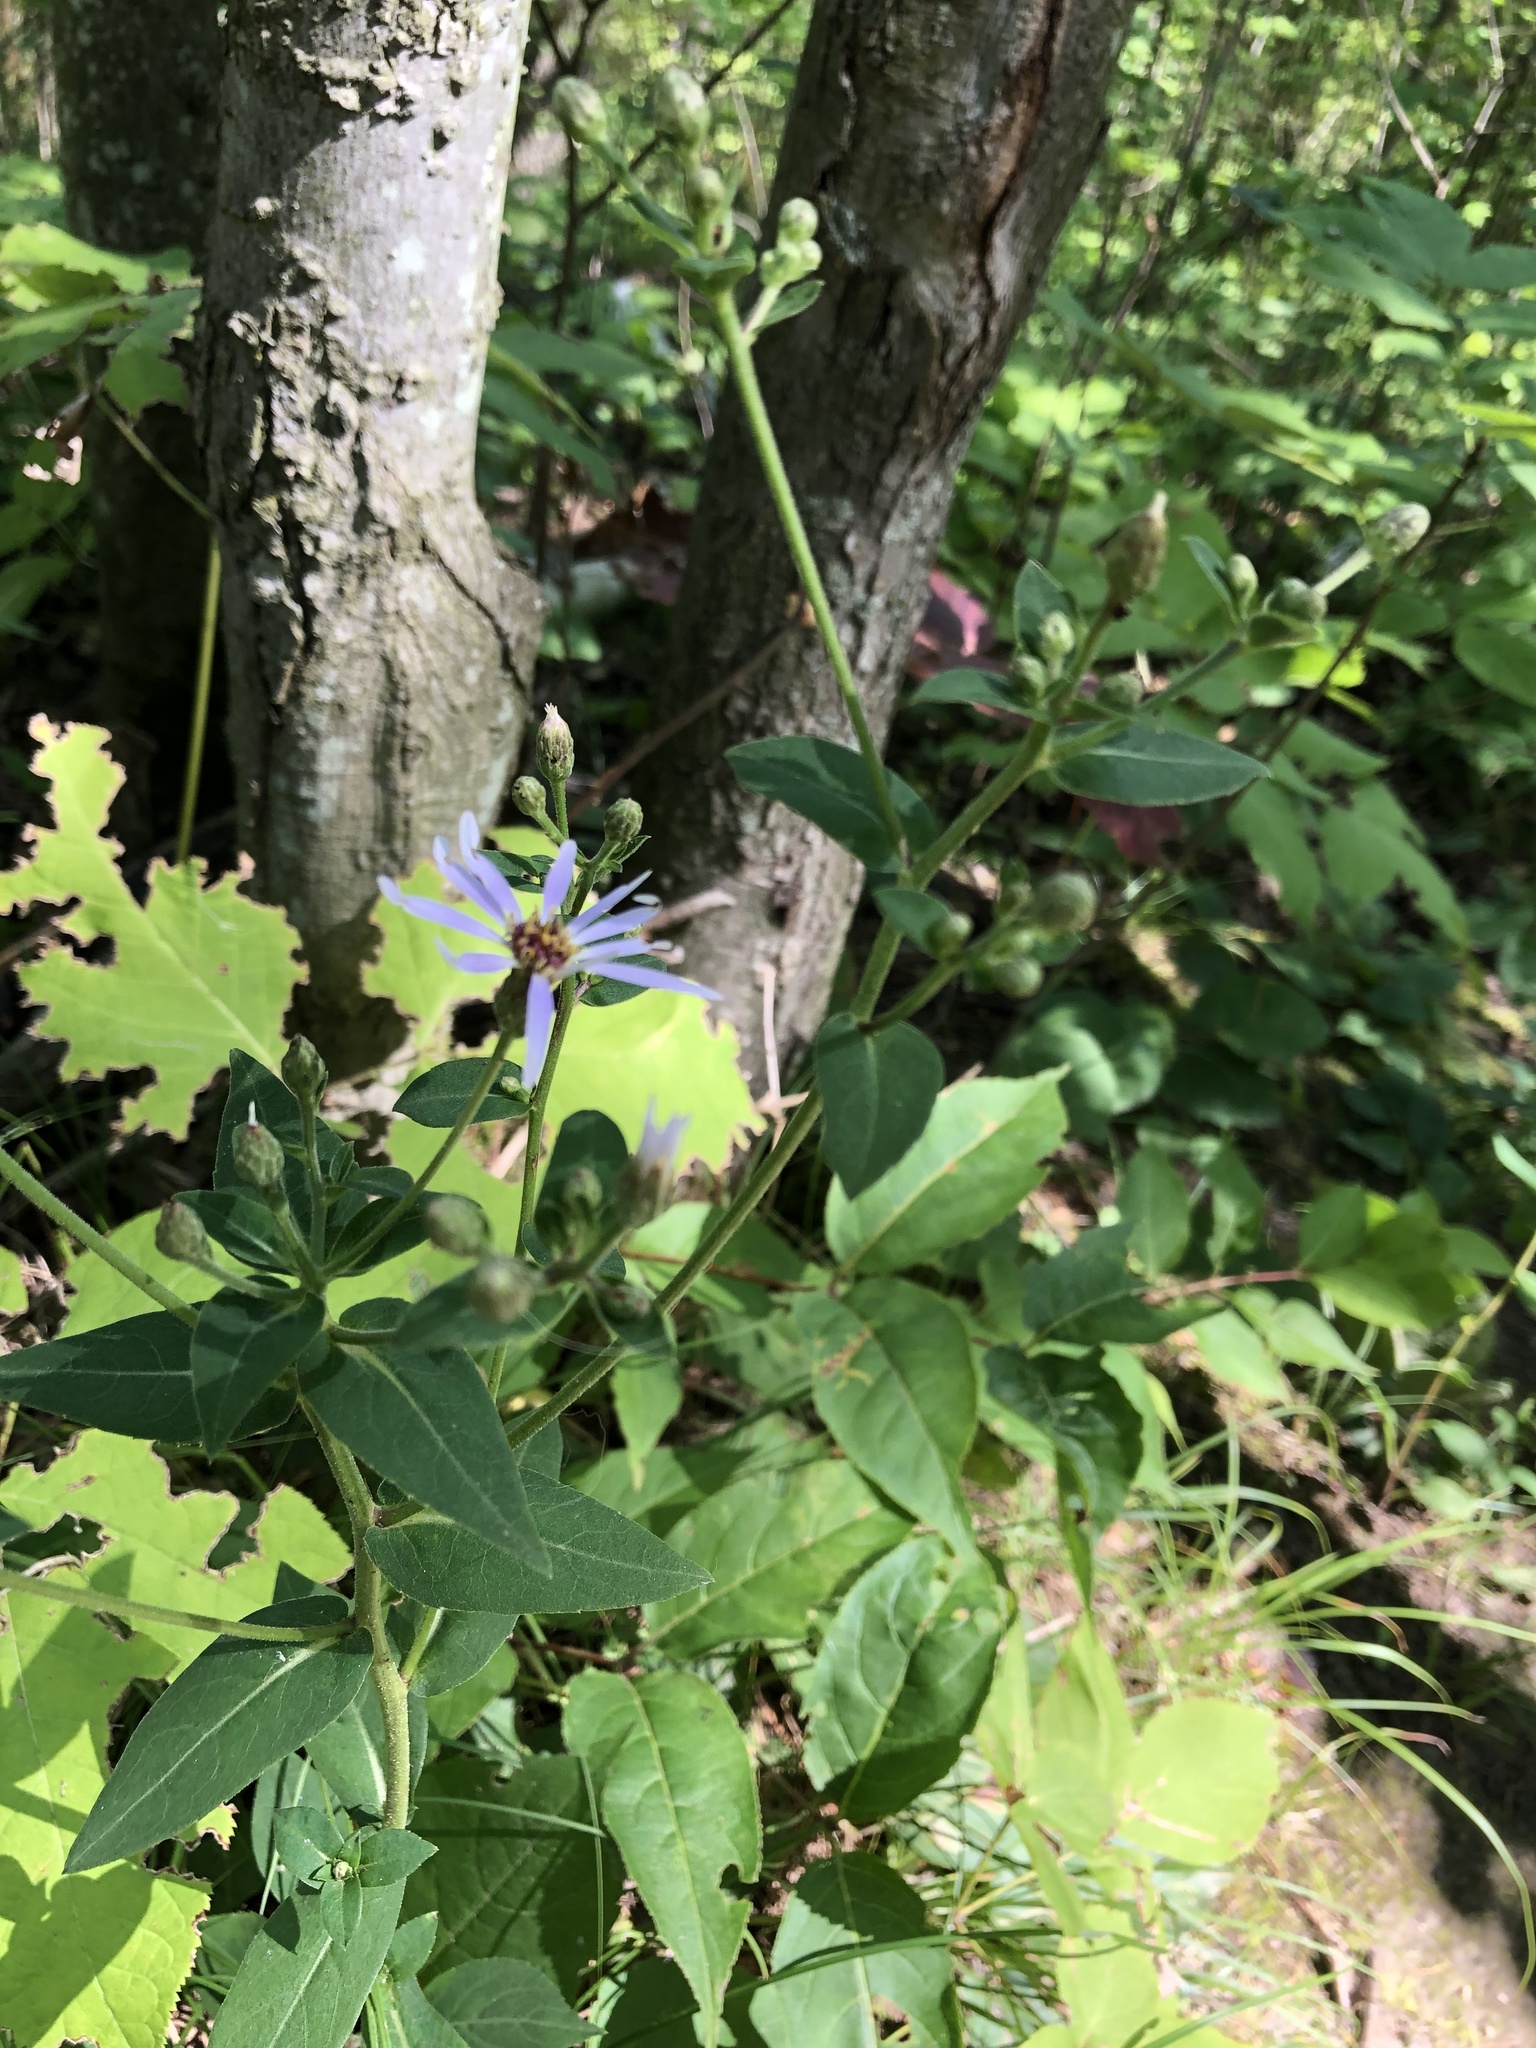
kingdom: Plantae
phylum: Tracheophyta
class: Magnoliopsida
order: Asterales
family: Asteraceae
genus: Eurybia
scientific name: Eurybia macrophylla
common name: Big-leaved aster
